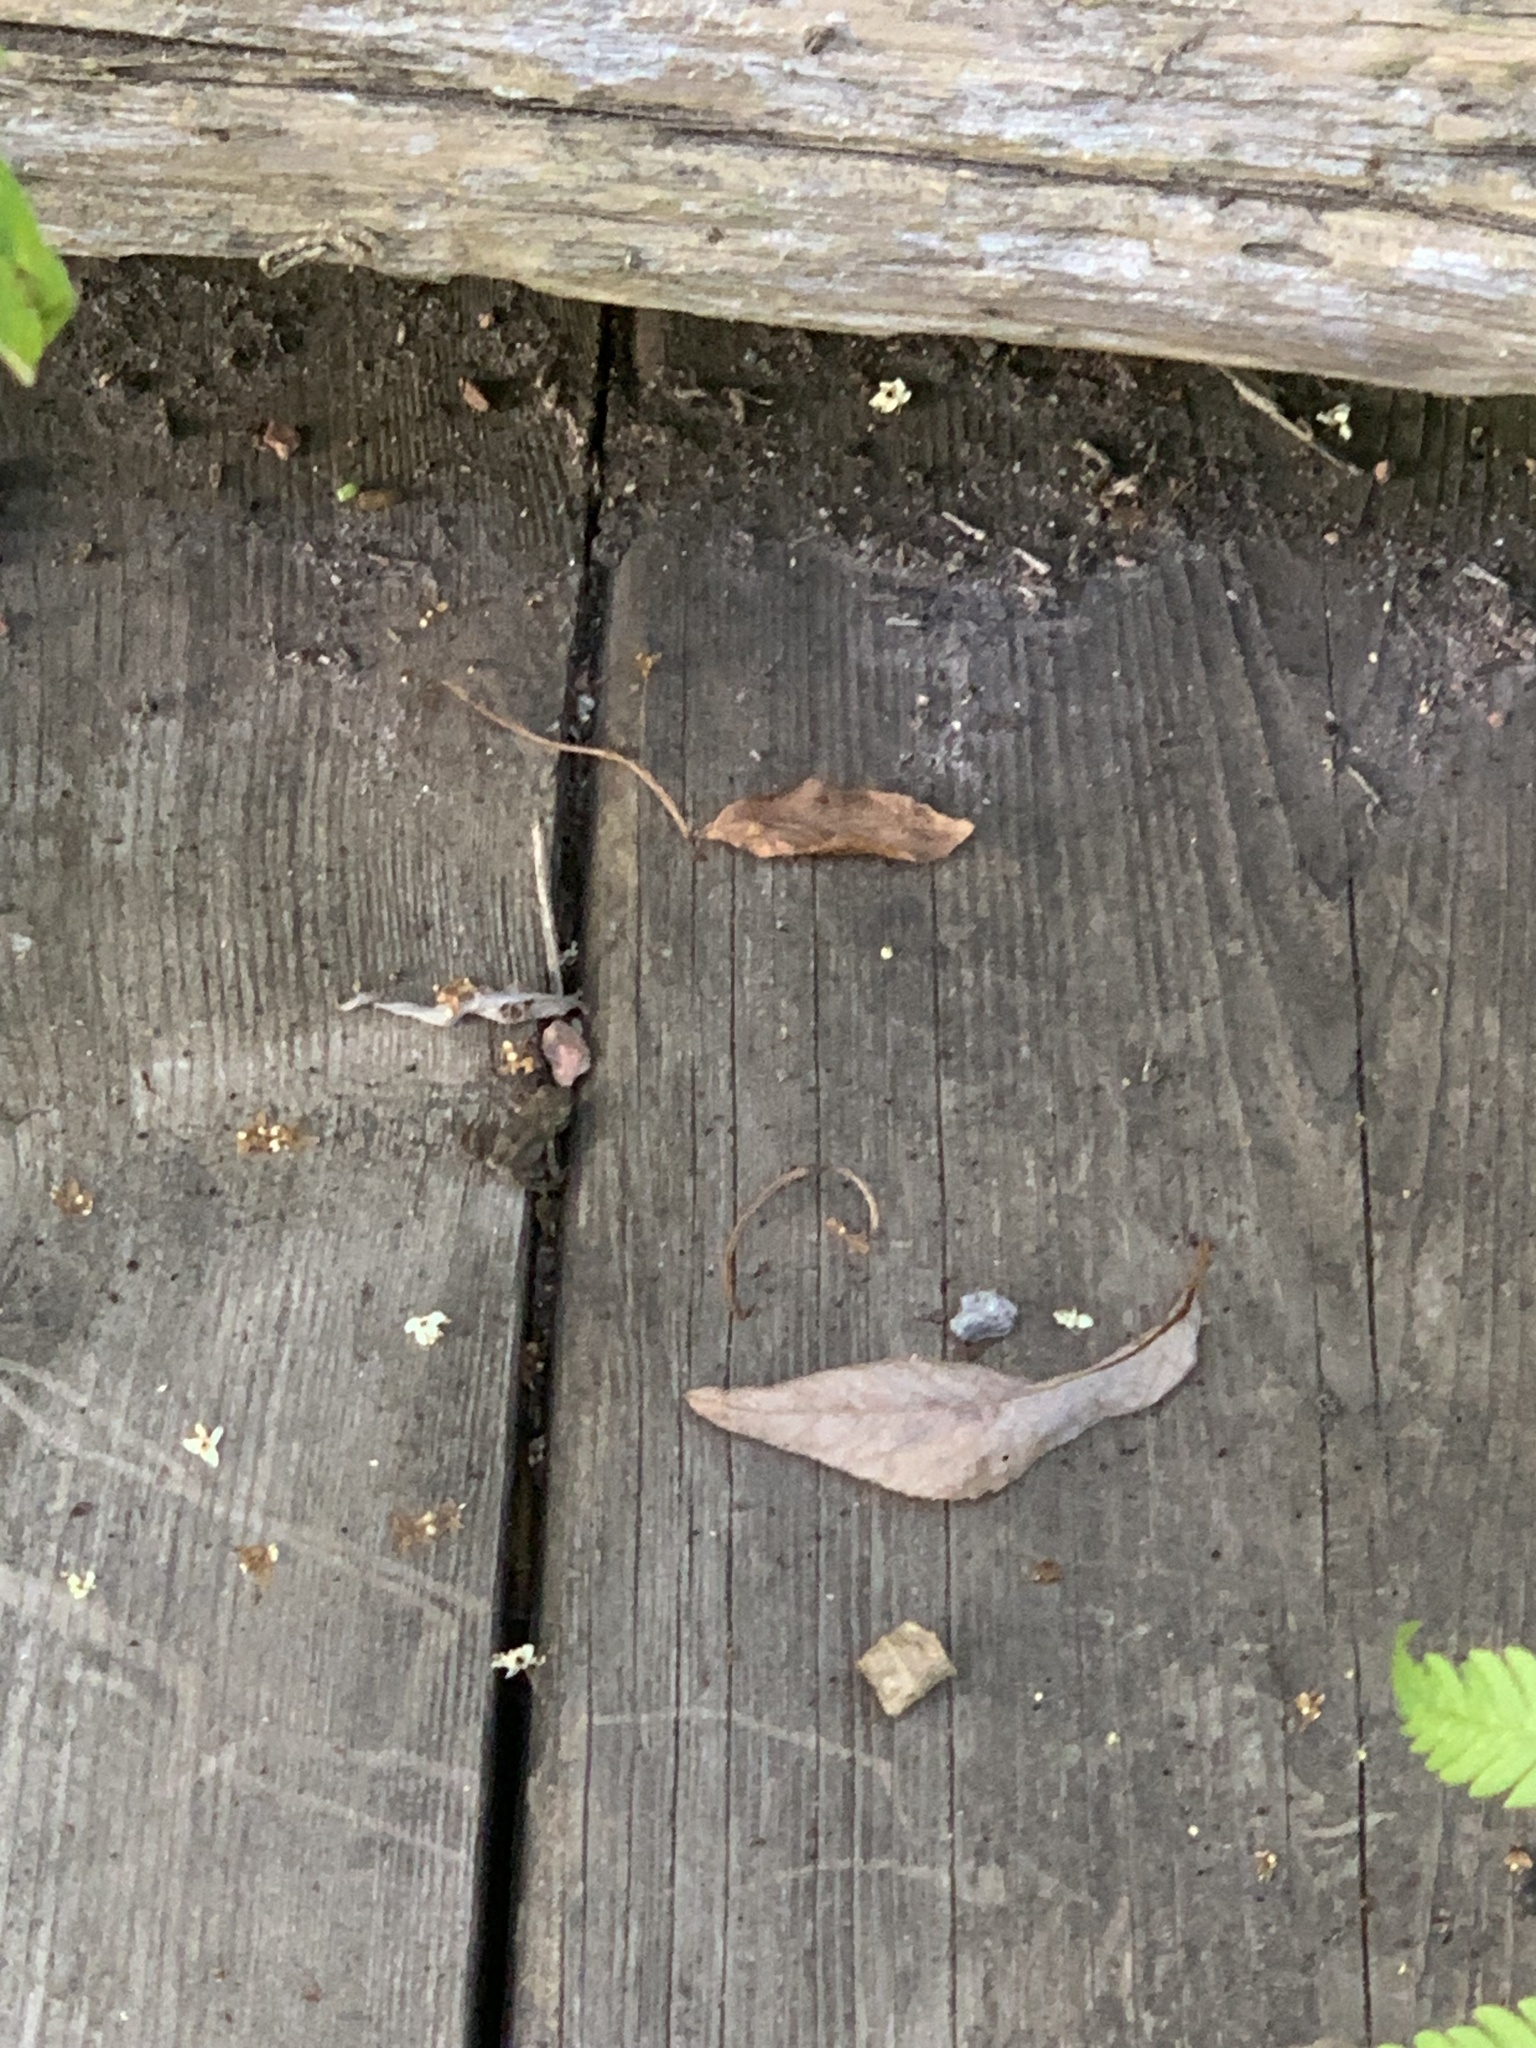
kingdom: Animalia
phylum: Chordata
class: Amphibia
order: Anura
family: Bufonidae
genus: Anaxyrus
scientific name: Anaxyrus americanus
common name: American toad
